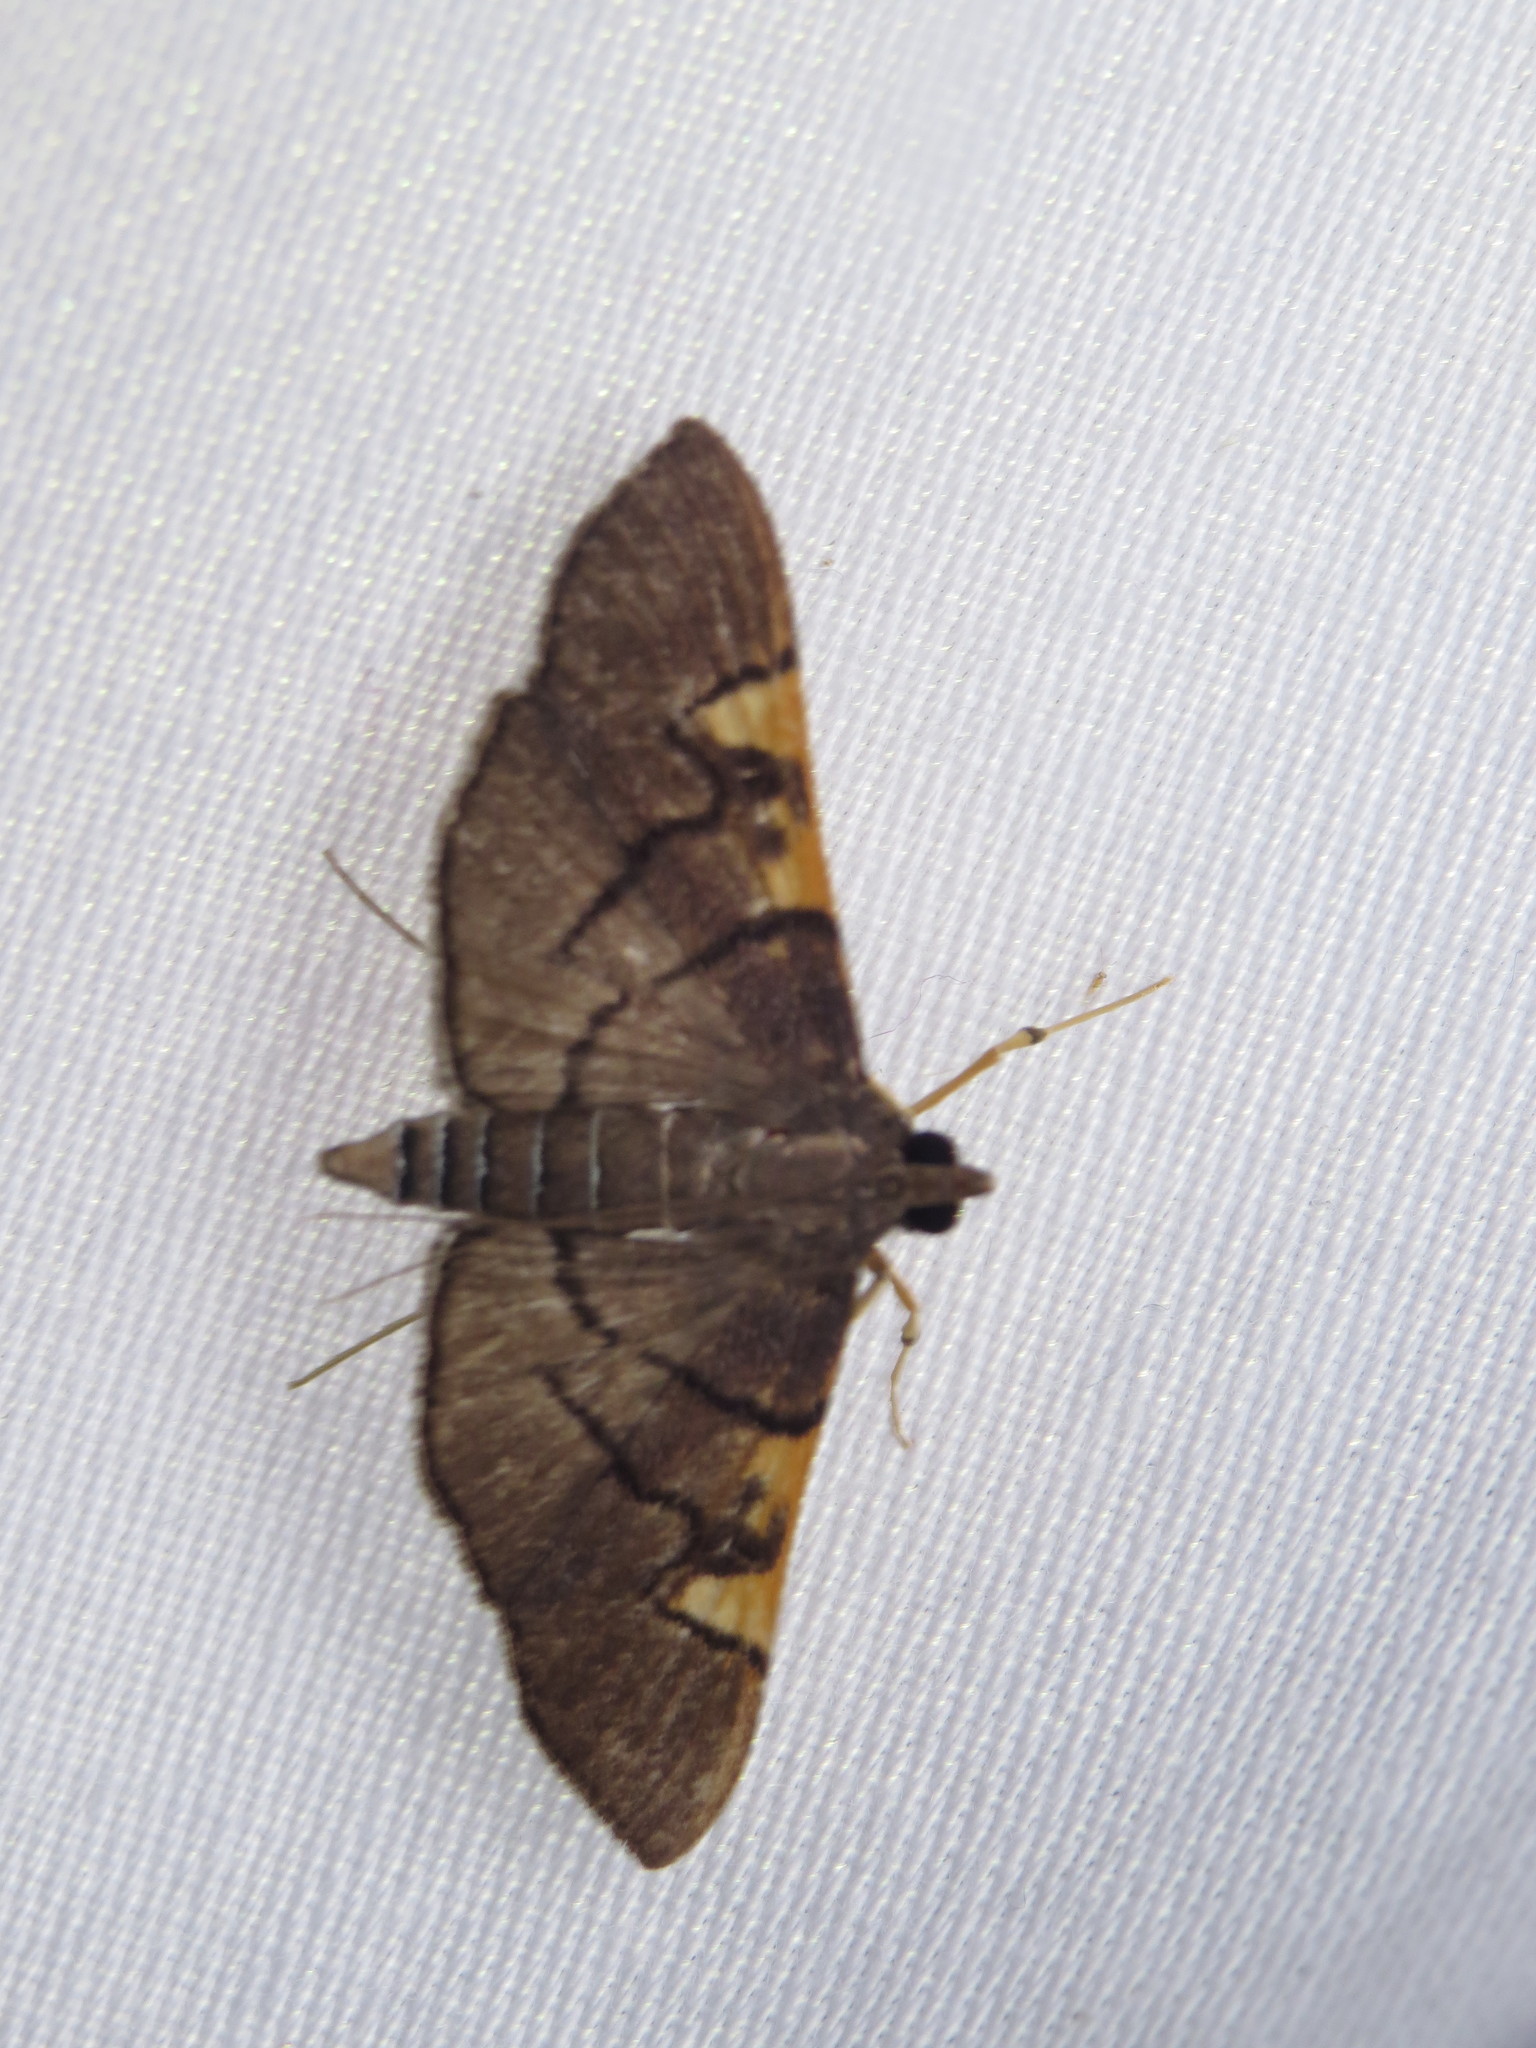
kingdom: Animalia
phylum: Arthropoda
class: Insecta
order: Lepidoptera
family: Crambidae
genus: Omiodes
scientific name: Omiodes simialis
